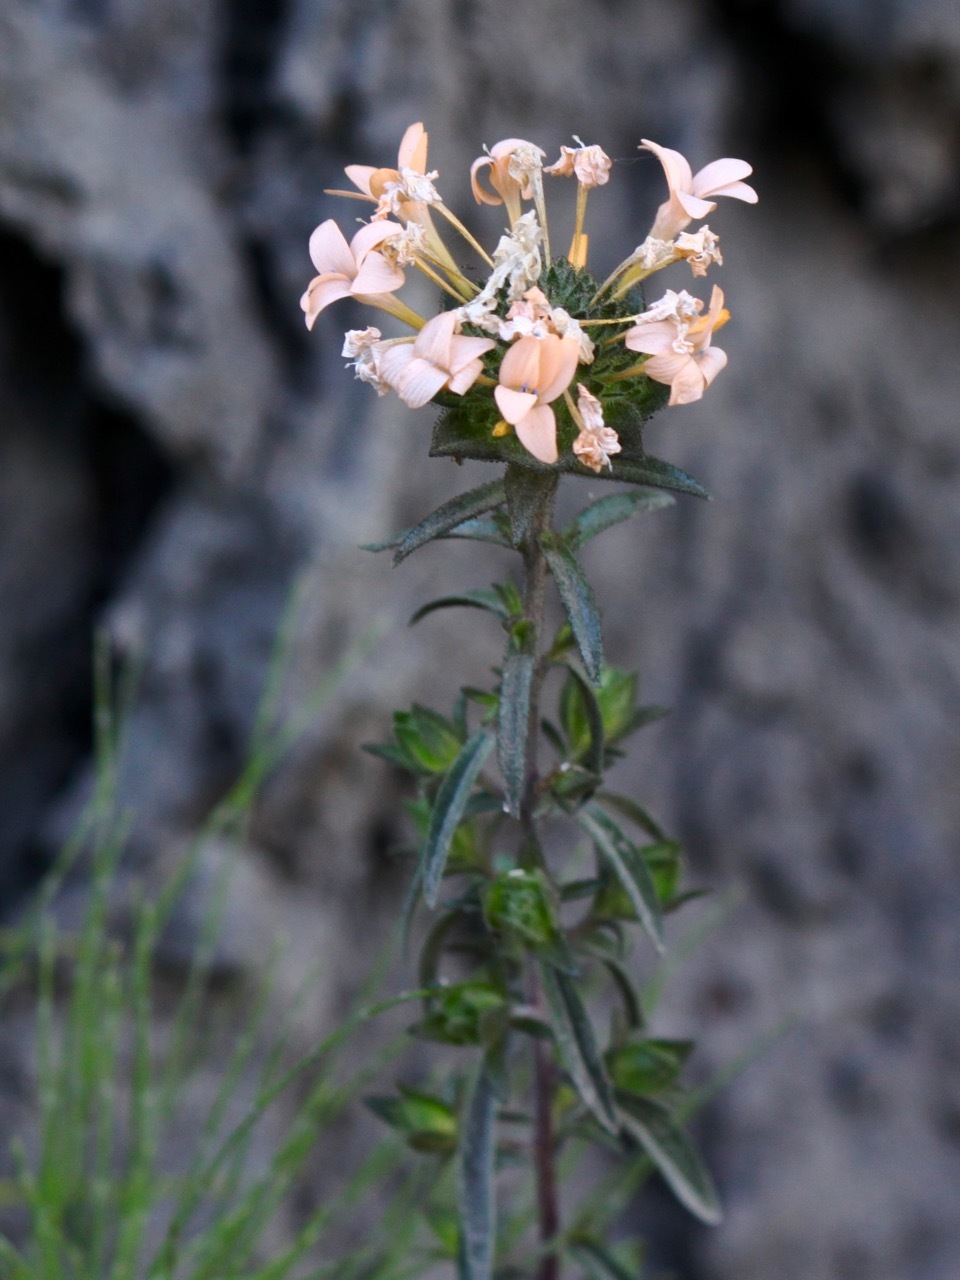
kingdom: Plantae
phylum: Tracheophyta
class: Magnoliopsida
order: Ericales
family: Polemoniaceae
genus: Collomia
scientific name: Collomia grandiflora
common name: California strawflower
